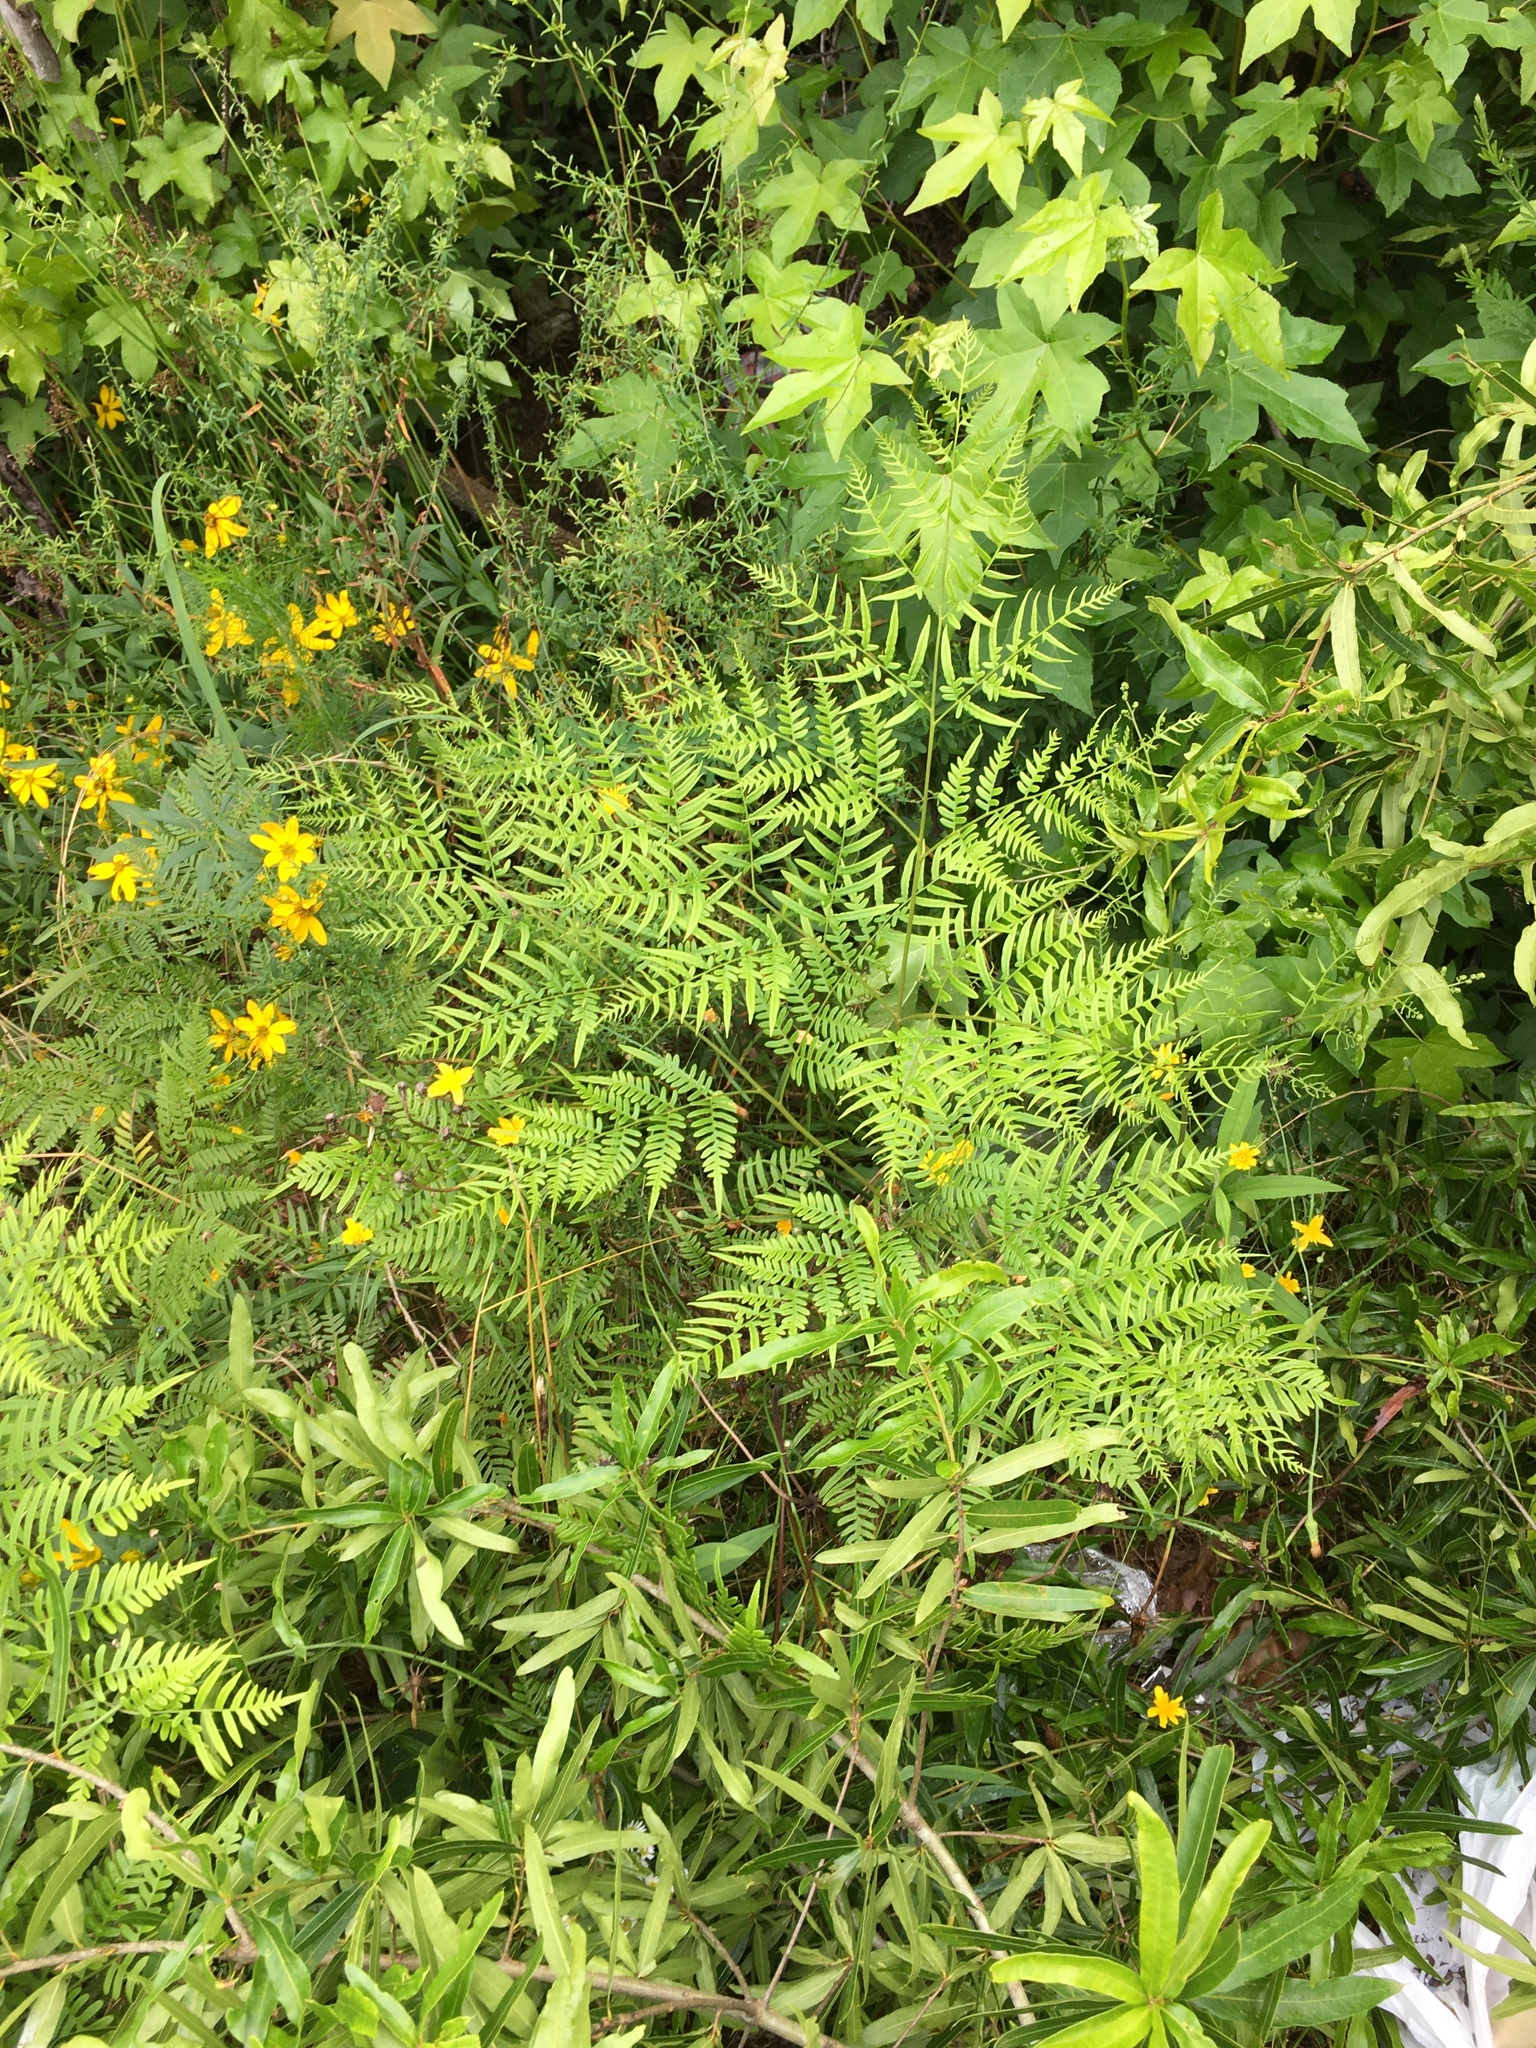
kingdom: Plantae
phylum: Tracheophyta
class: Polypodiopsida
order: Polypodiales
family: Dennstaedtiaceae
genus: Pteridium
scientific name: Pteridium aquilinum
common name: Bracken
